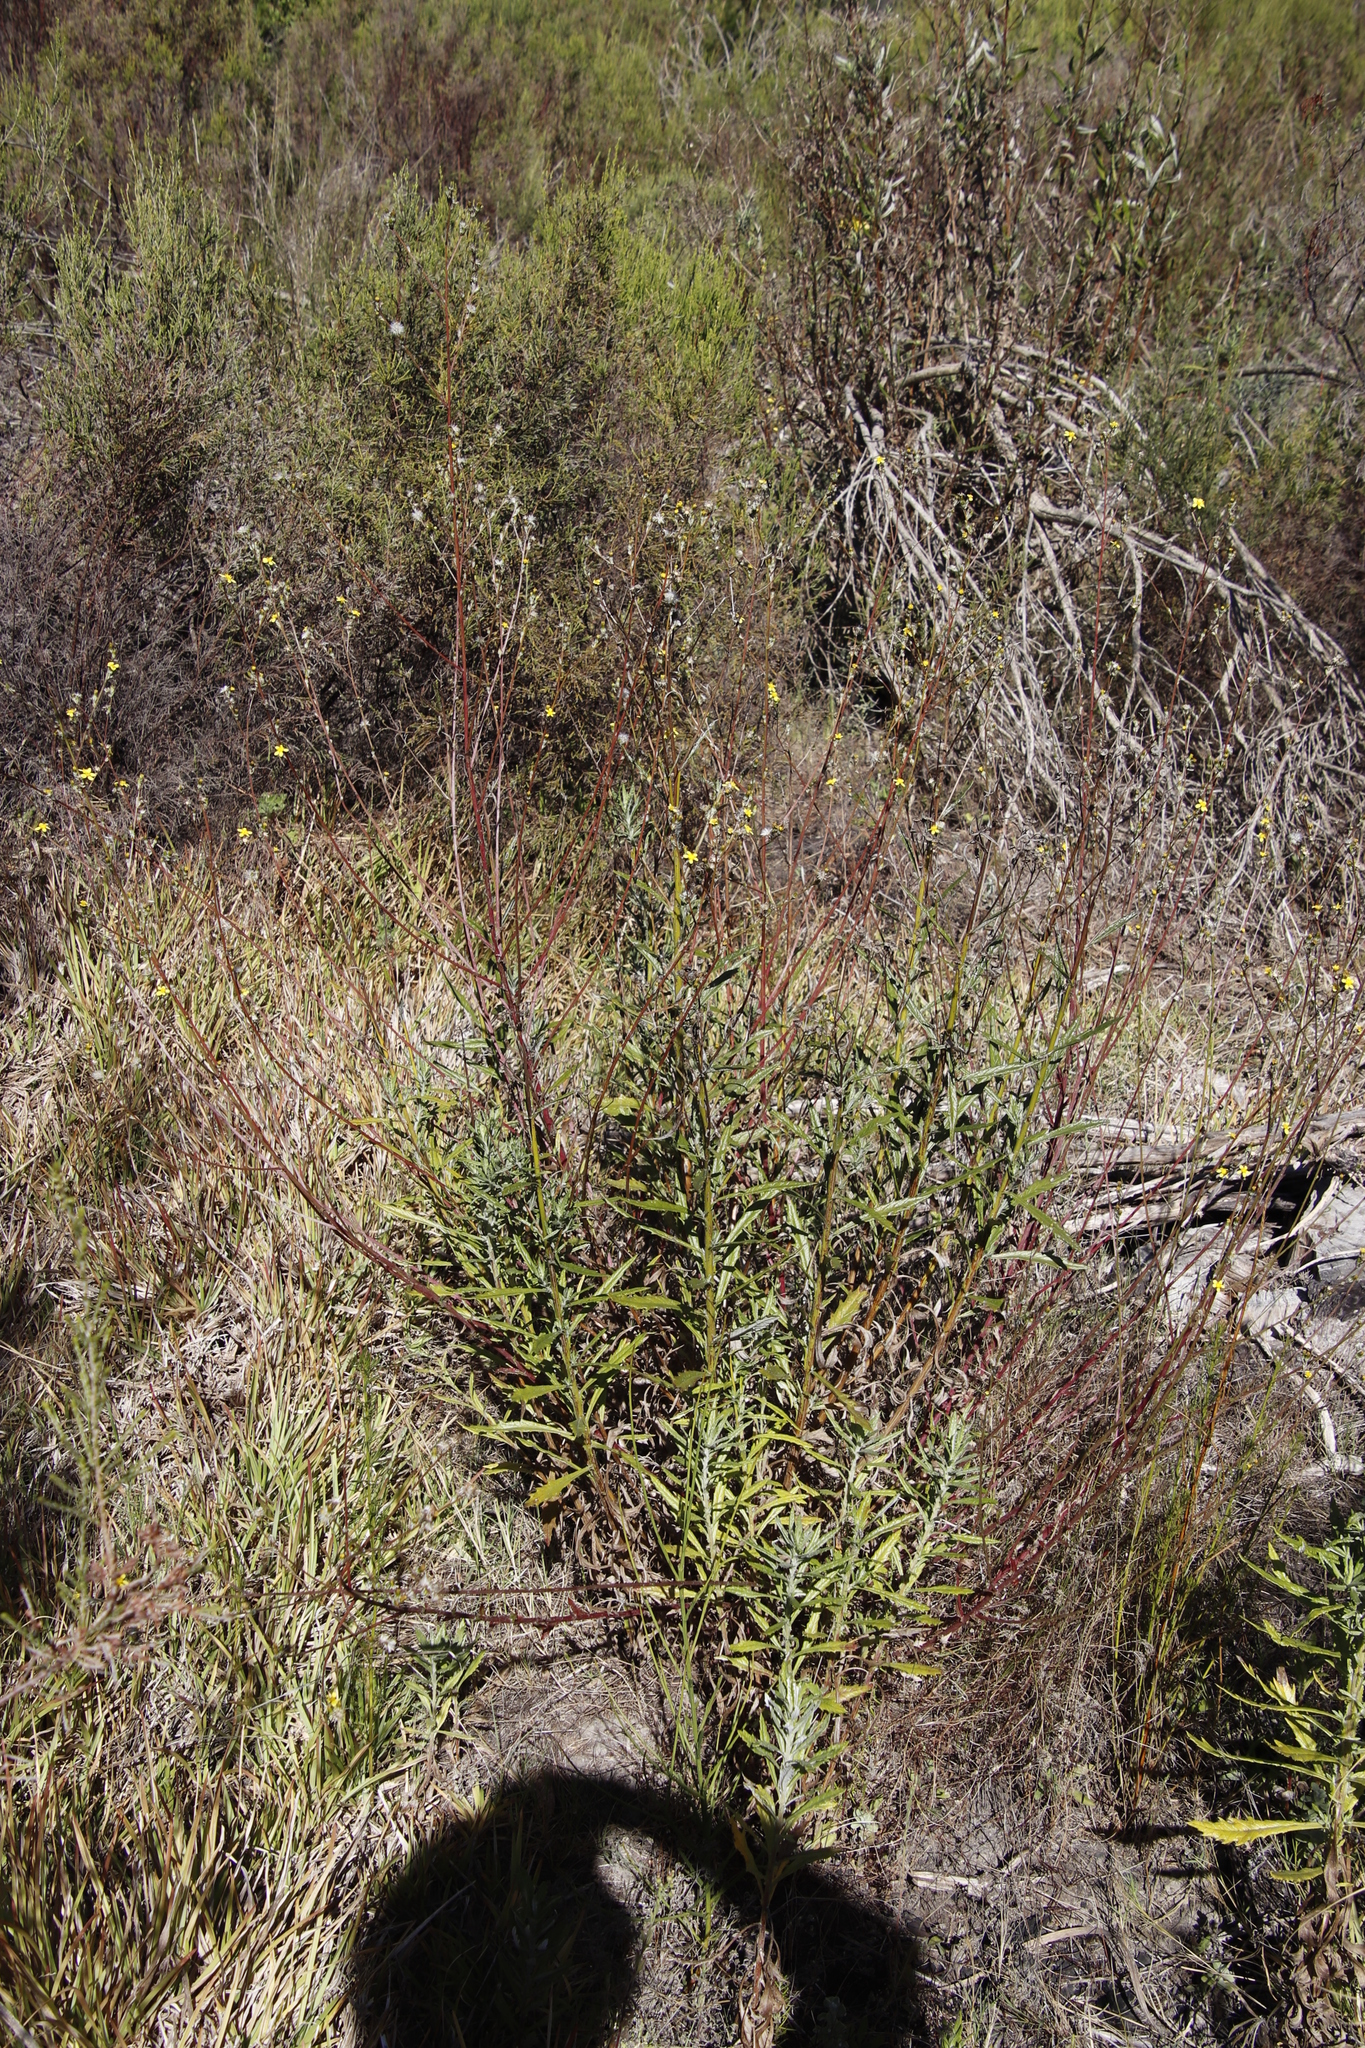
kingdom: Plantae
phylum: Tracheophyta
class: Magnoliopsida
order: Asterales
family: Asteraceae
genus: Senecio
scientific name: Senecio pterophorus
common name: Shoddy ragwort
